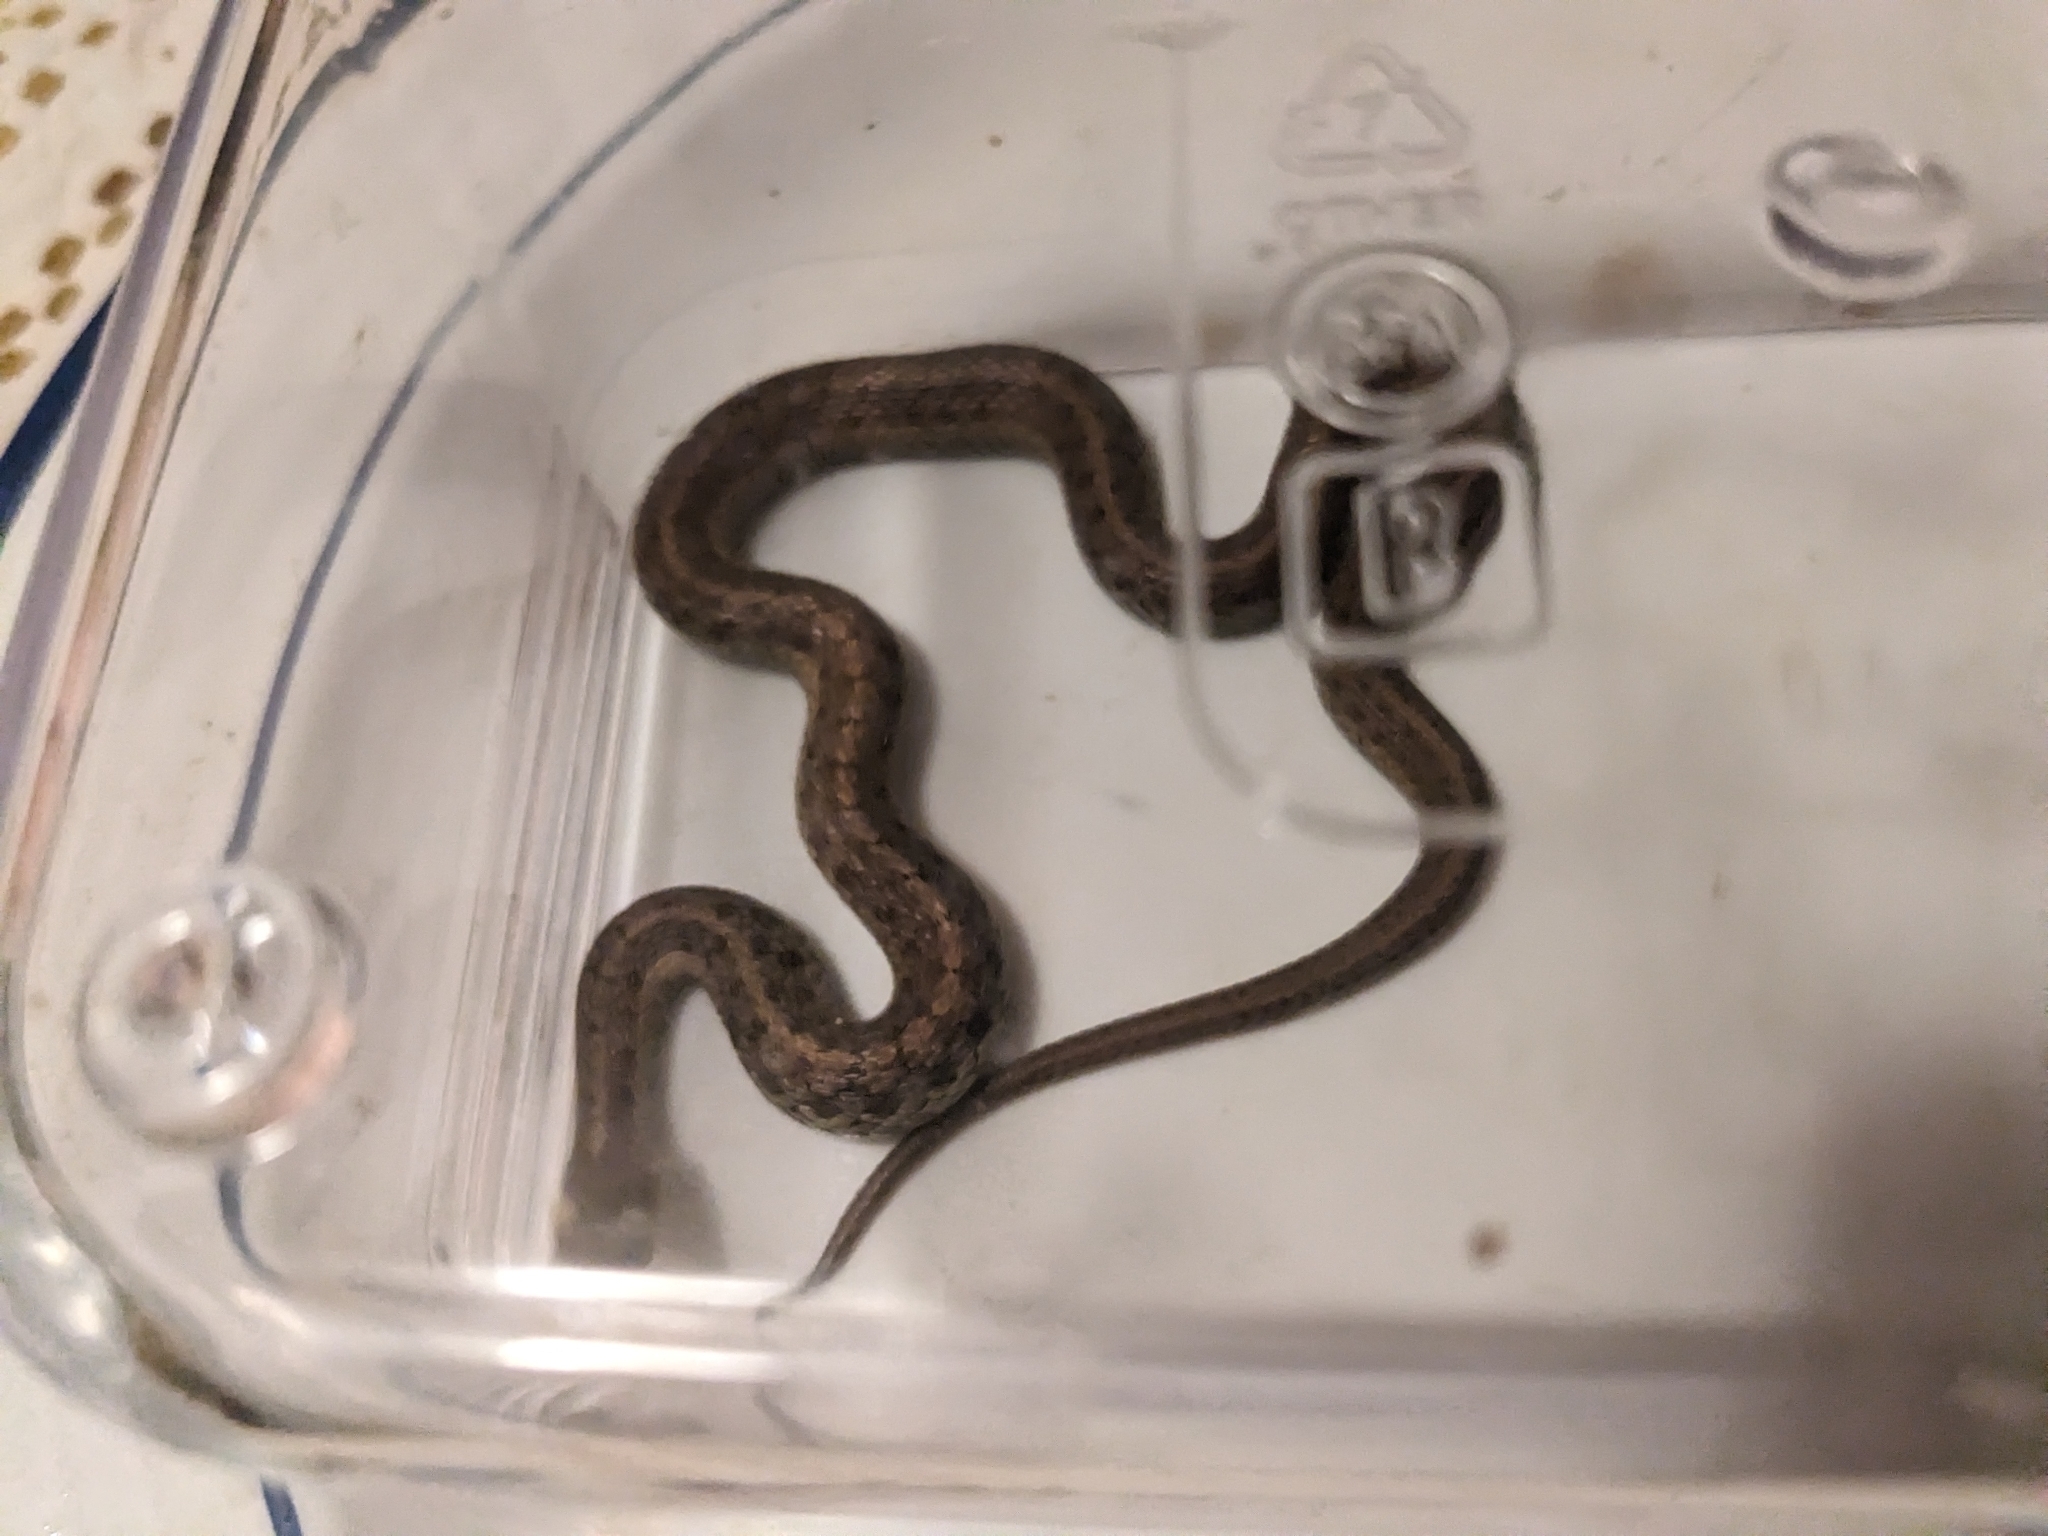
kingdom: Animalia
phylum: Chordata
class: Squamata
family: Colubridae
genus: Thamnophis
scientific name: Thamnophis sirtalis
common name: Common garter snake
